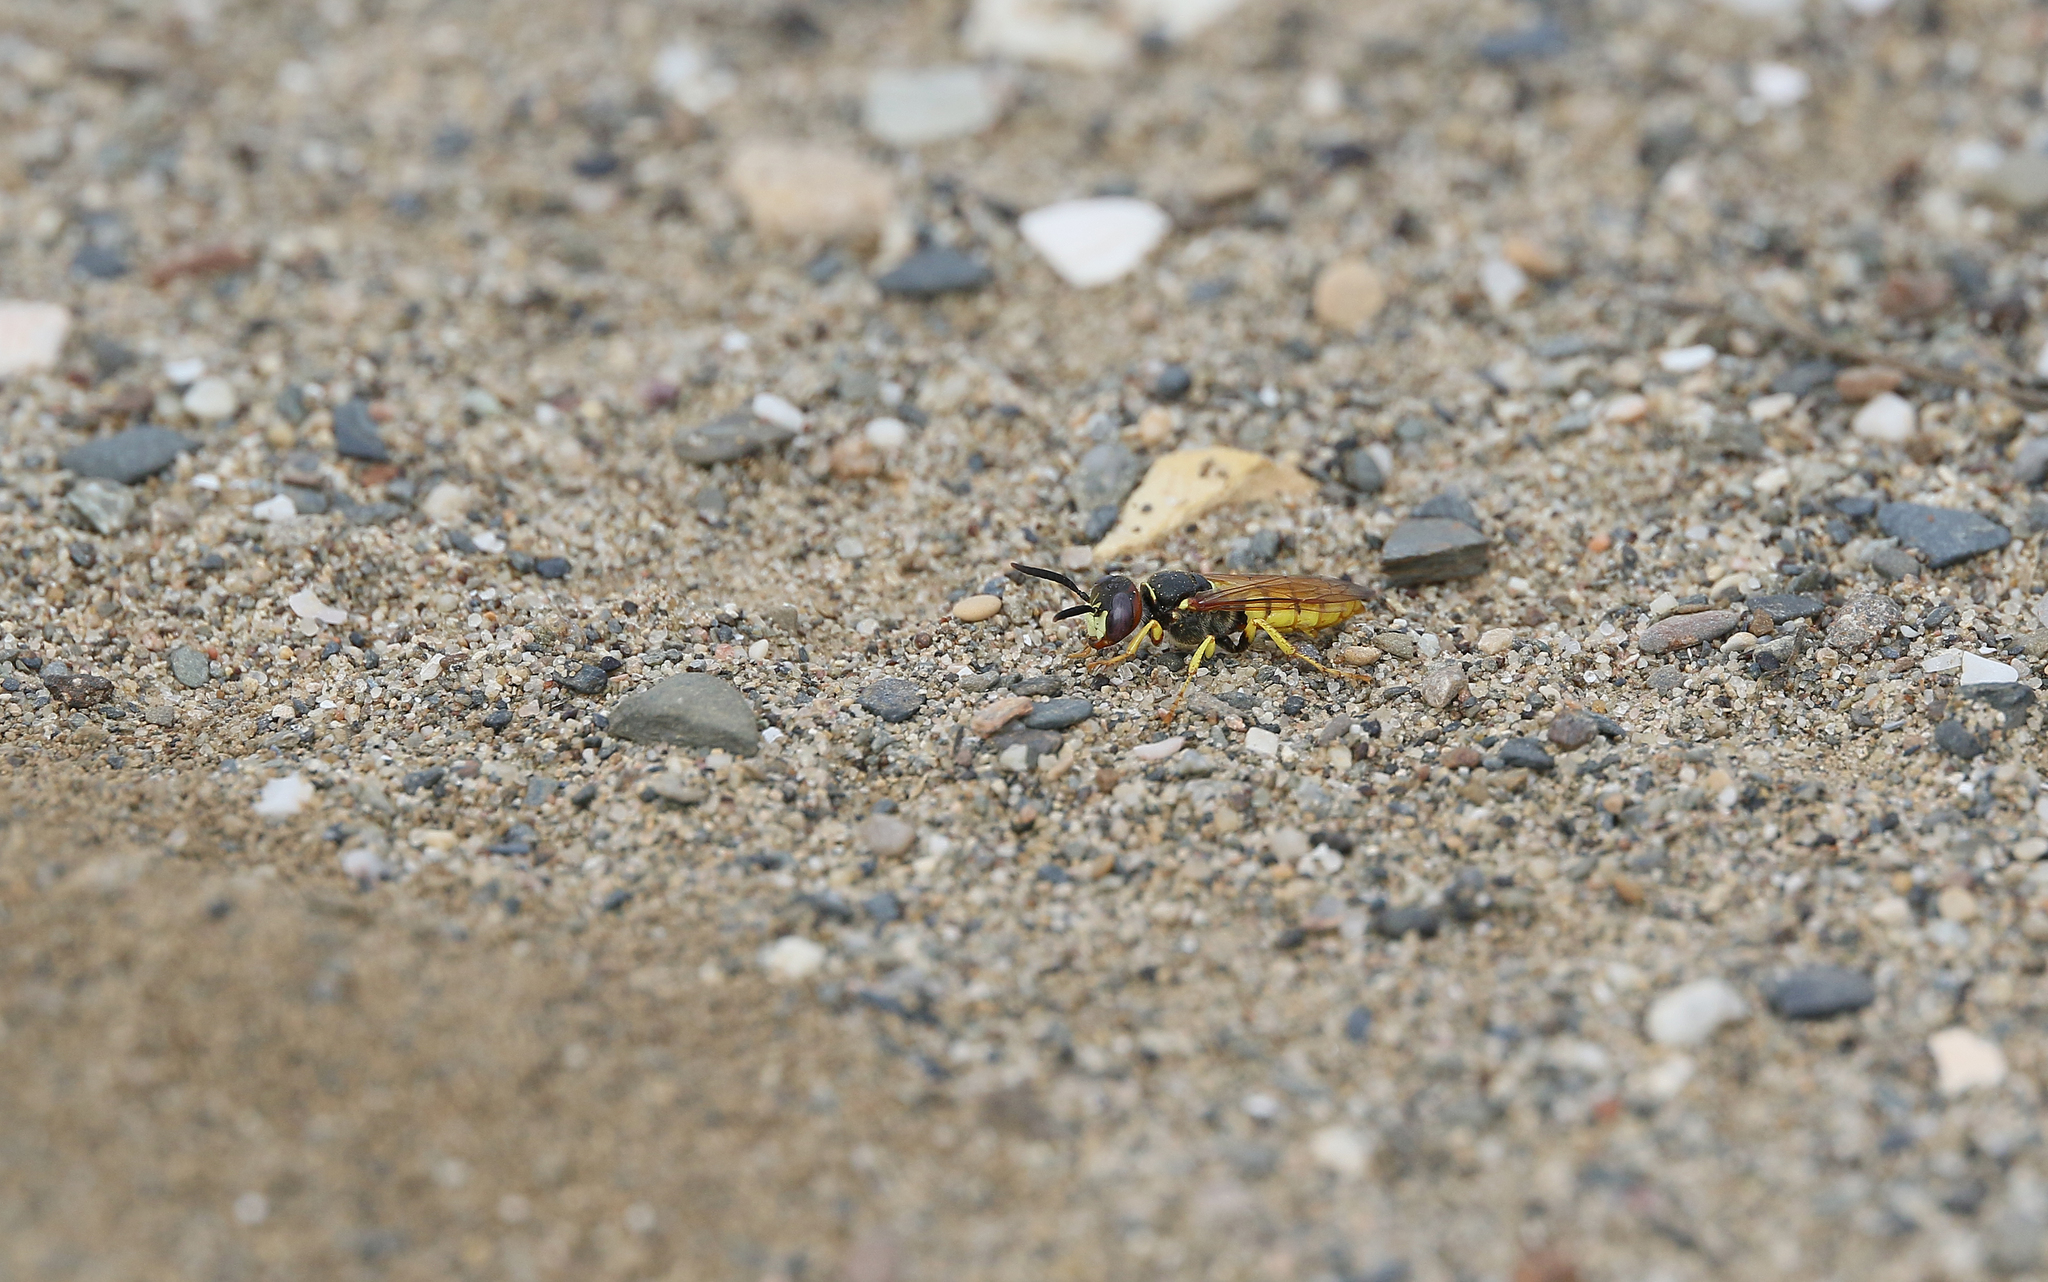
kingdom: Animalia
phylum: Arthropoda
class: Insecta
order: Hymenoptera
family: Crabronidae
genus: Philanthus
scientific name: Philanthus triangulum
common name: Bee wolf
